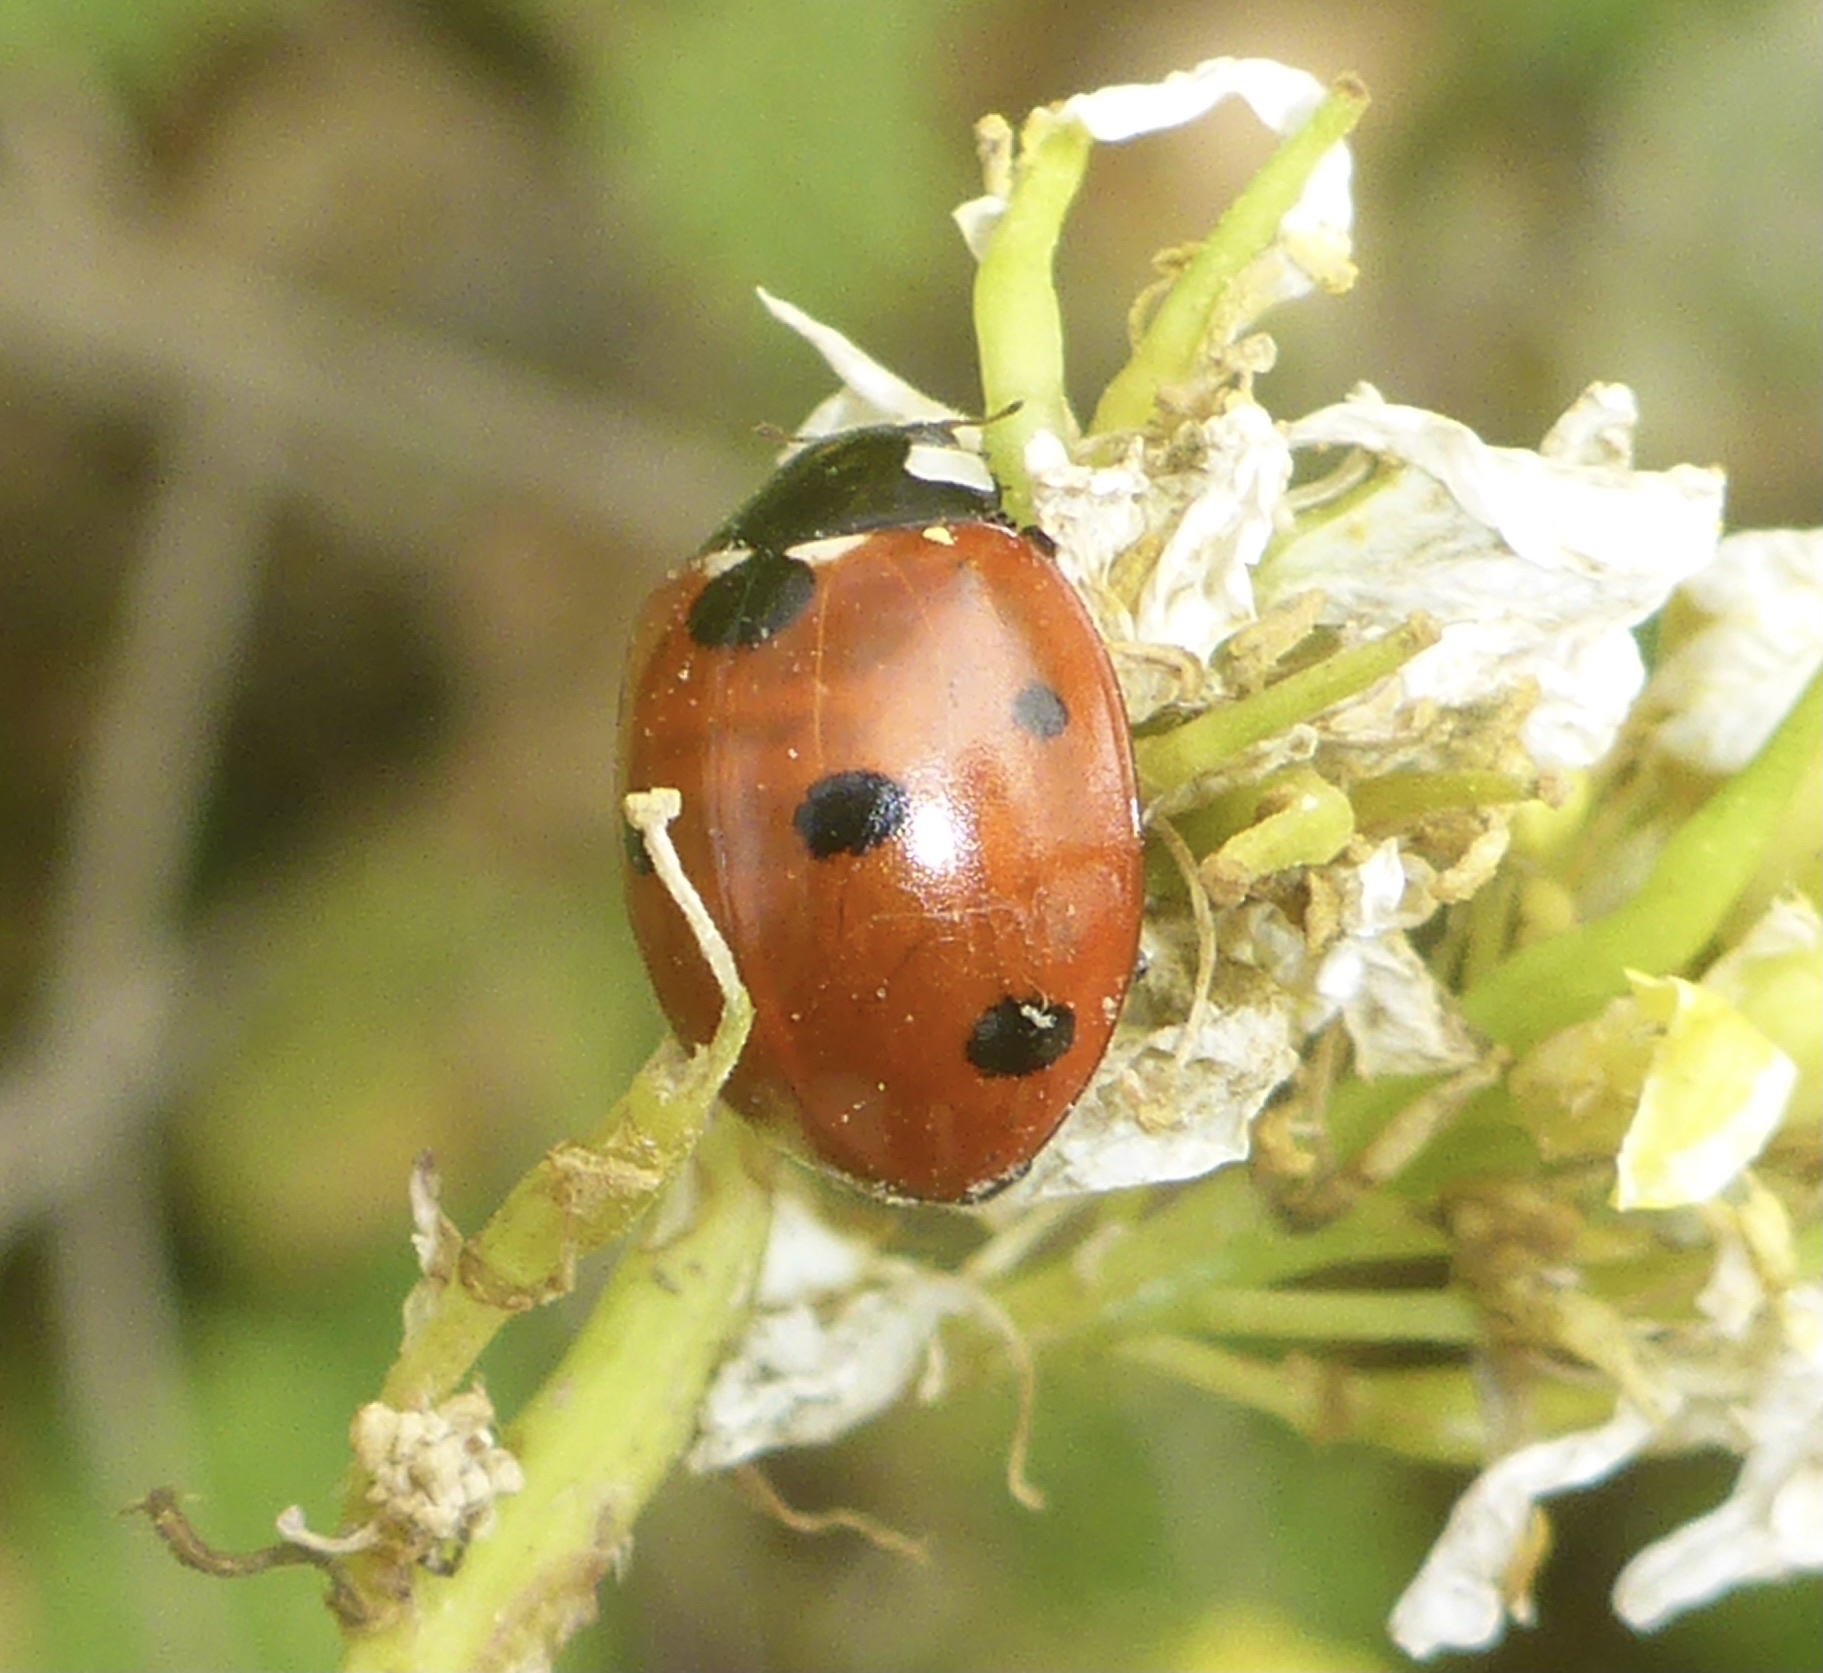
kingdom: Animalia
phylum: Arthropoda
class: Insecta
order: Coleoptera
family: Coccinellidae
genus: Coccinella
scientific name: Coccinella septempunctata
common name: Sevenspotted lady beetle
